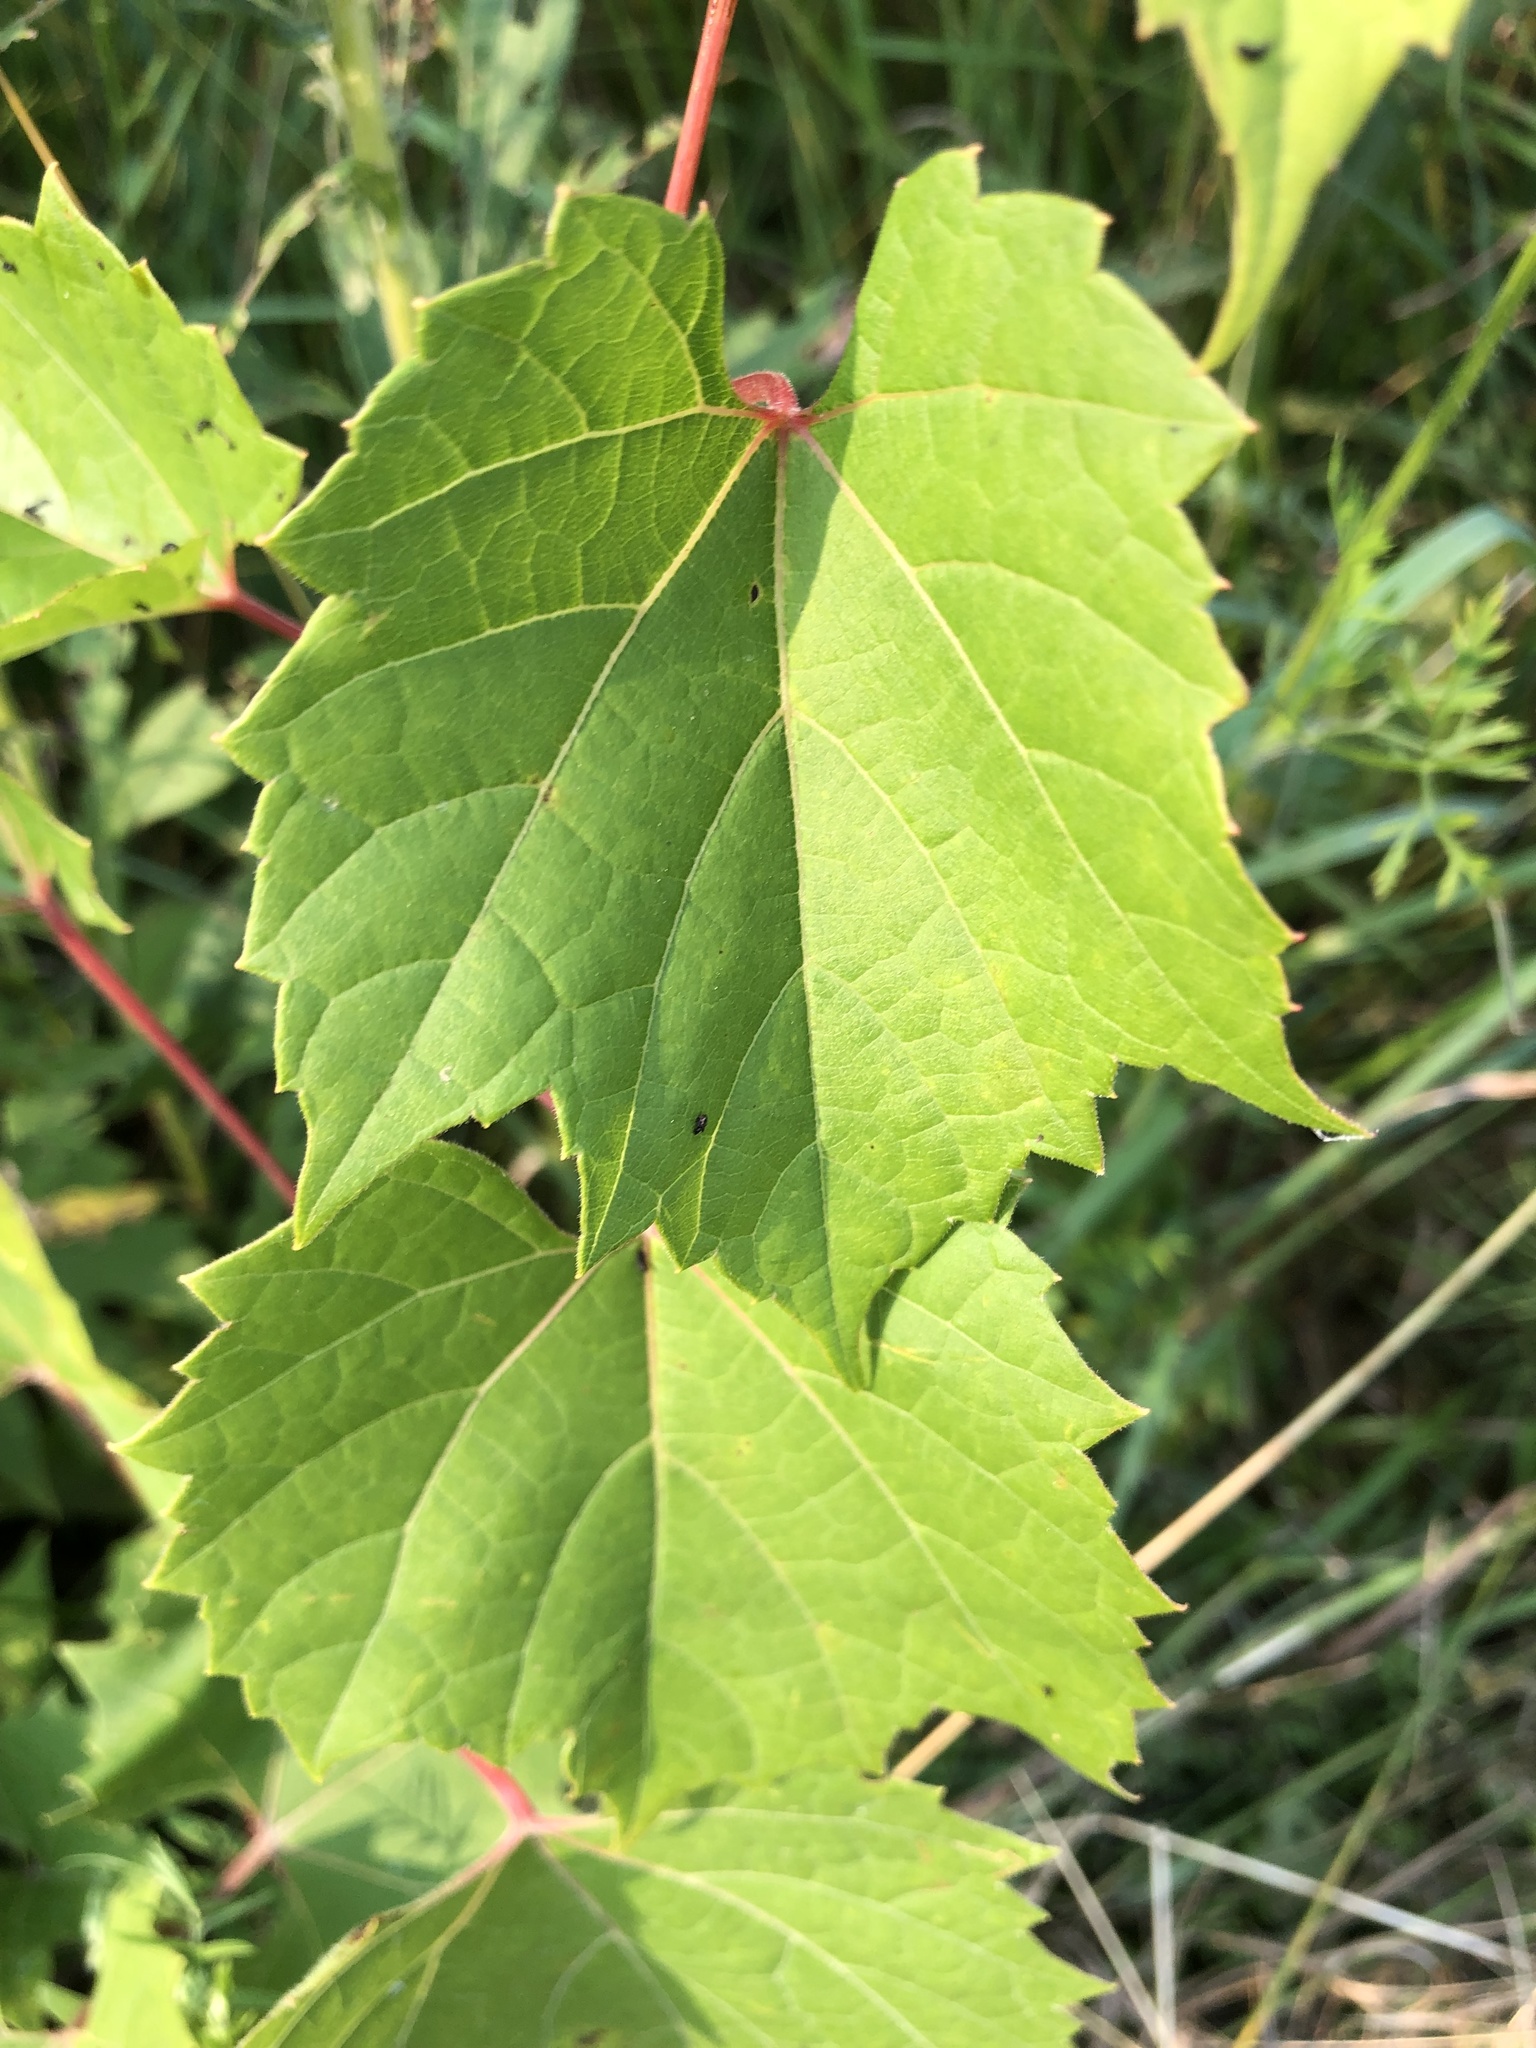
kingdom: Plantae
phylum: Tracheophyta
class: Magnoliopsida
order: Vitales
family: Vitaceae
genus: Vitis
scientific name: Vitis riparia
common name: Frost grape
